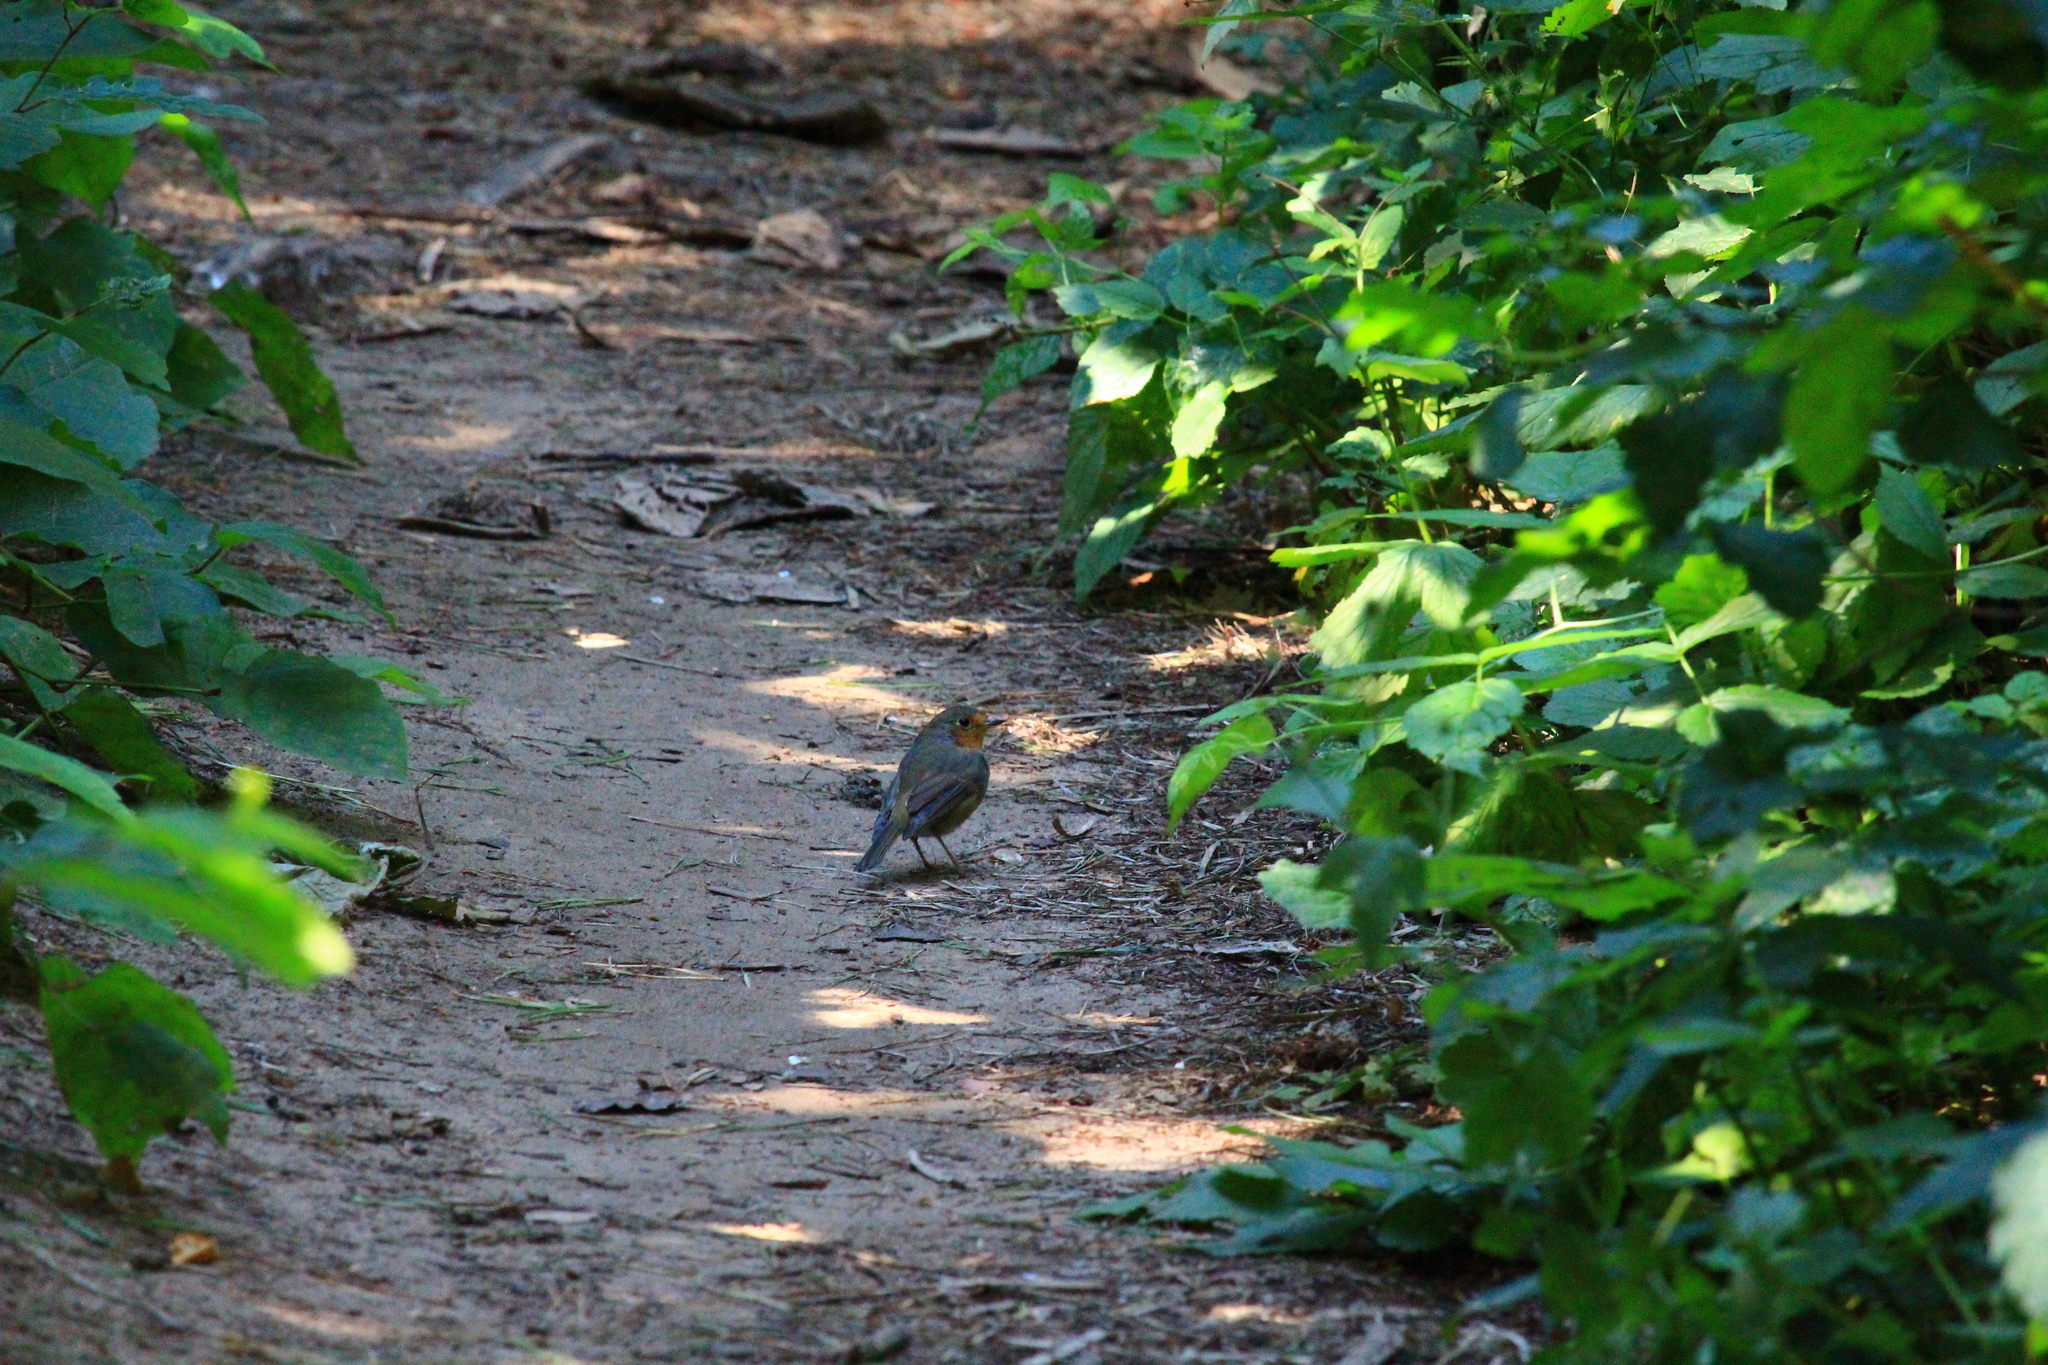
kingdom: Animalia
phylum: Chordata
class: Aves
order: Passeriformes
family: Muscicapidae
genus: Erithacus
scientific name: Erithacus rubecula
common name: European robin
